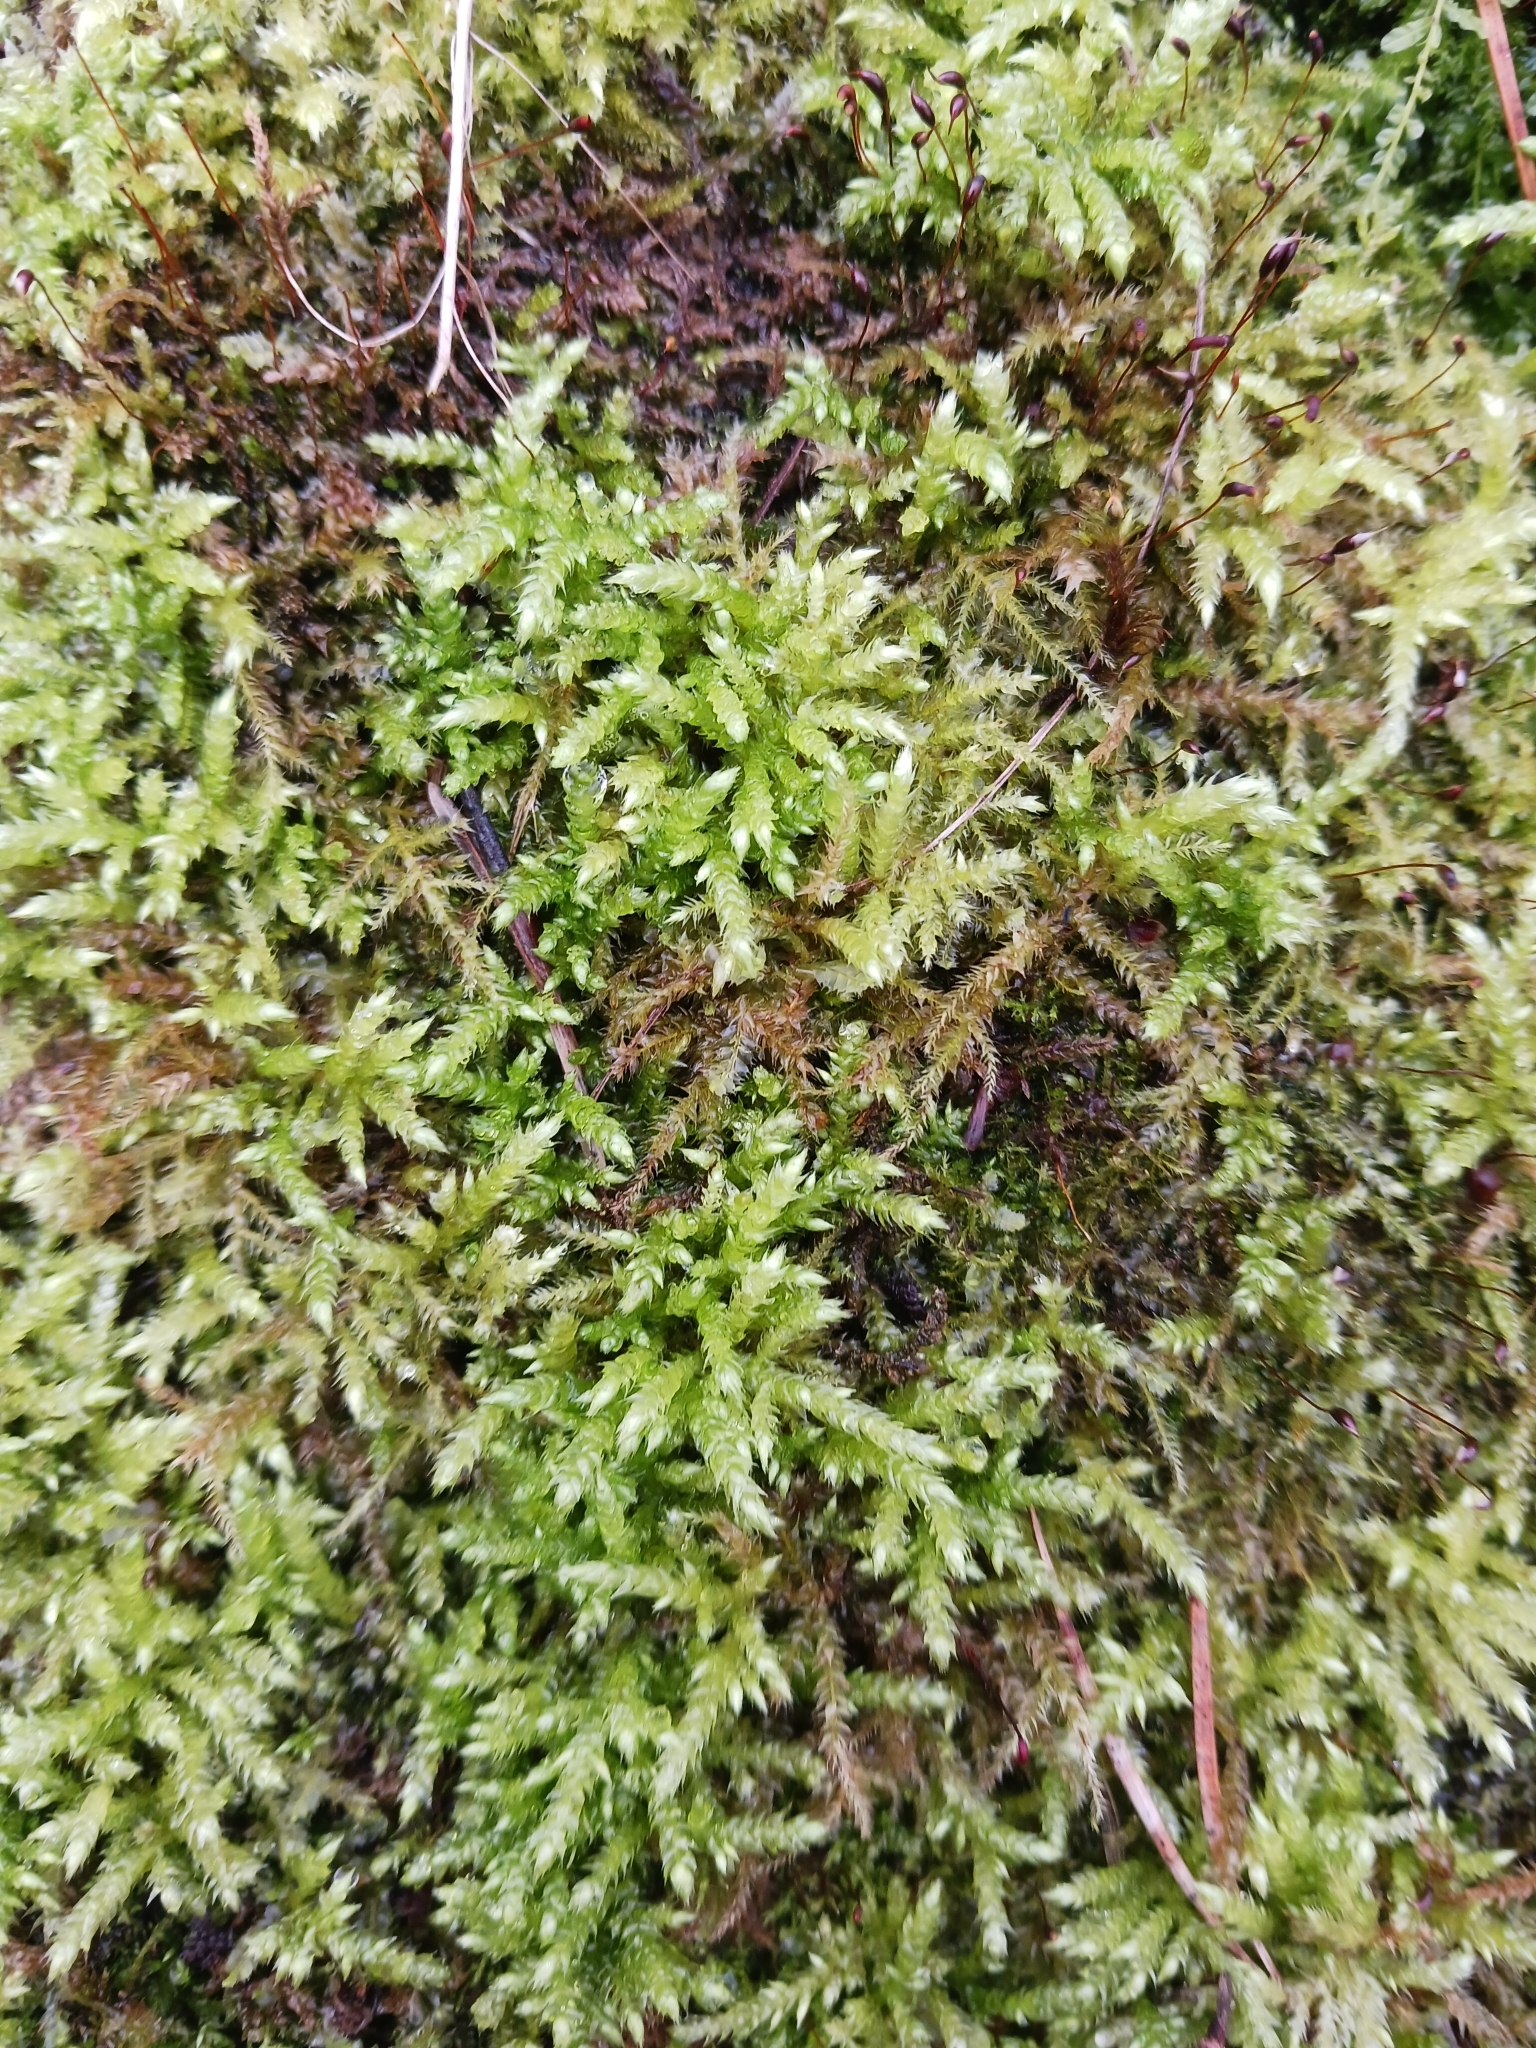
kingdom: Plantae
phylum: Bryophyta
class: Bryopsida
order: Hypnales
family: Brachytheciaceae
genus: Brachythecium
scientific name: Brachythecium rutabulum
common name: Rough-stalked feather-moss
